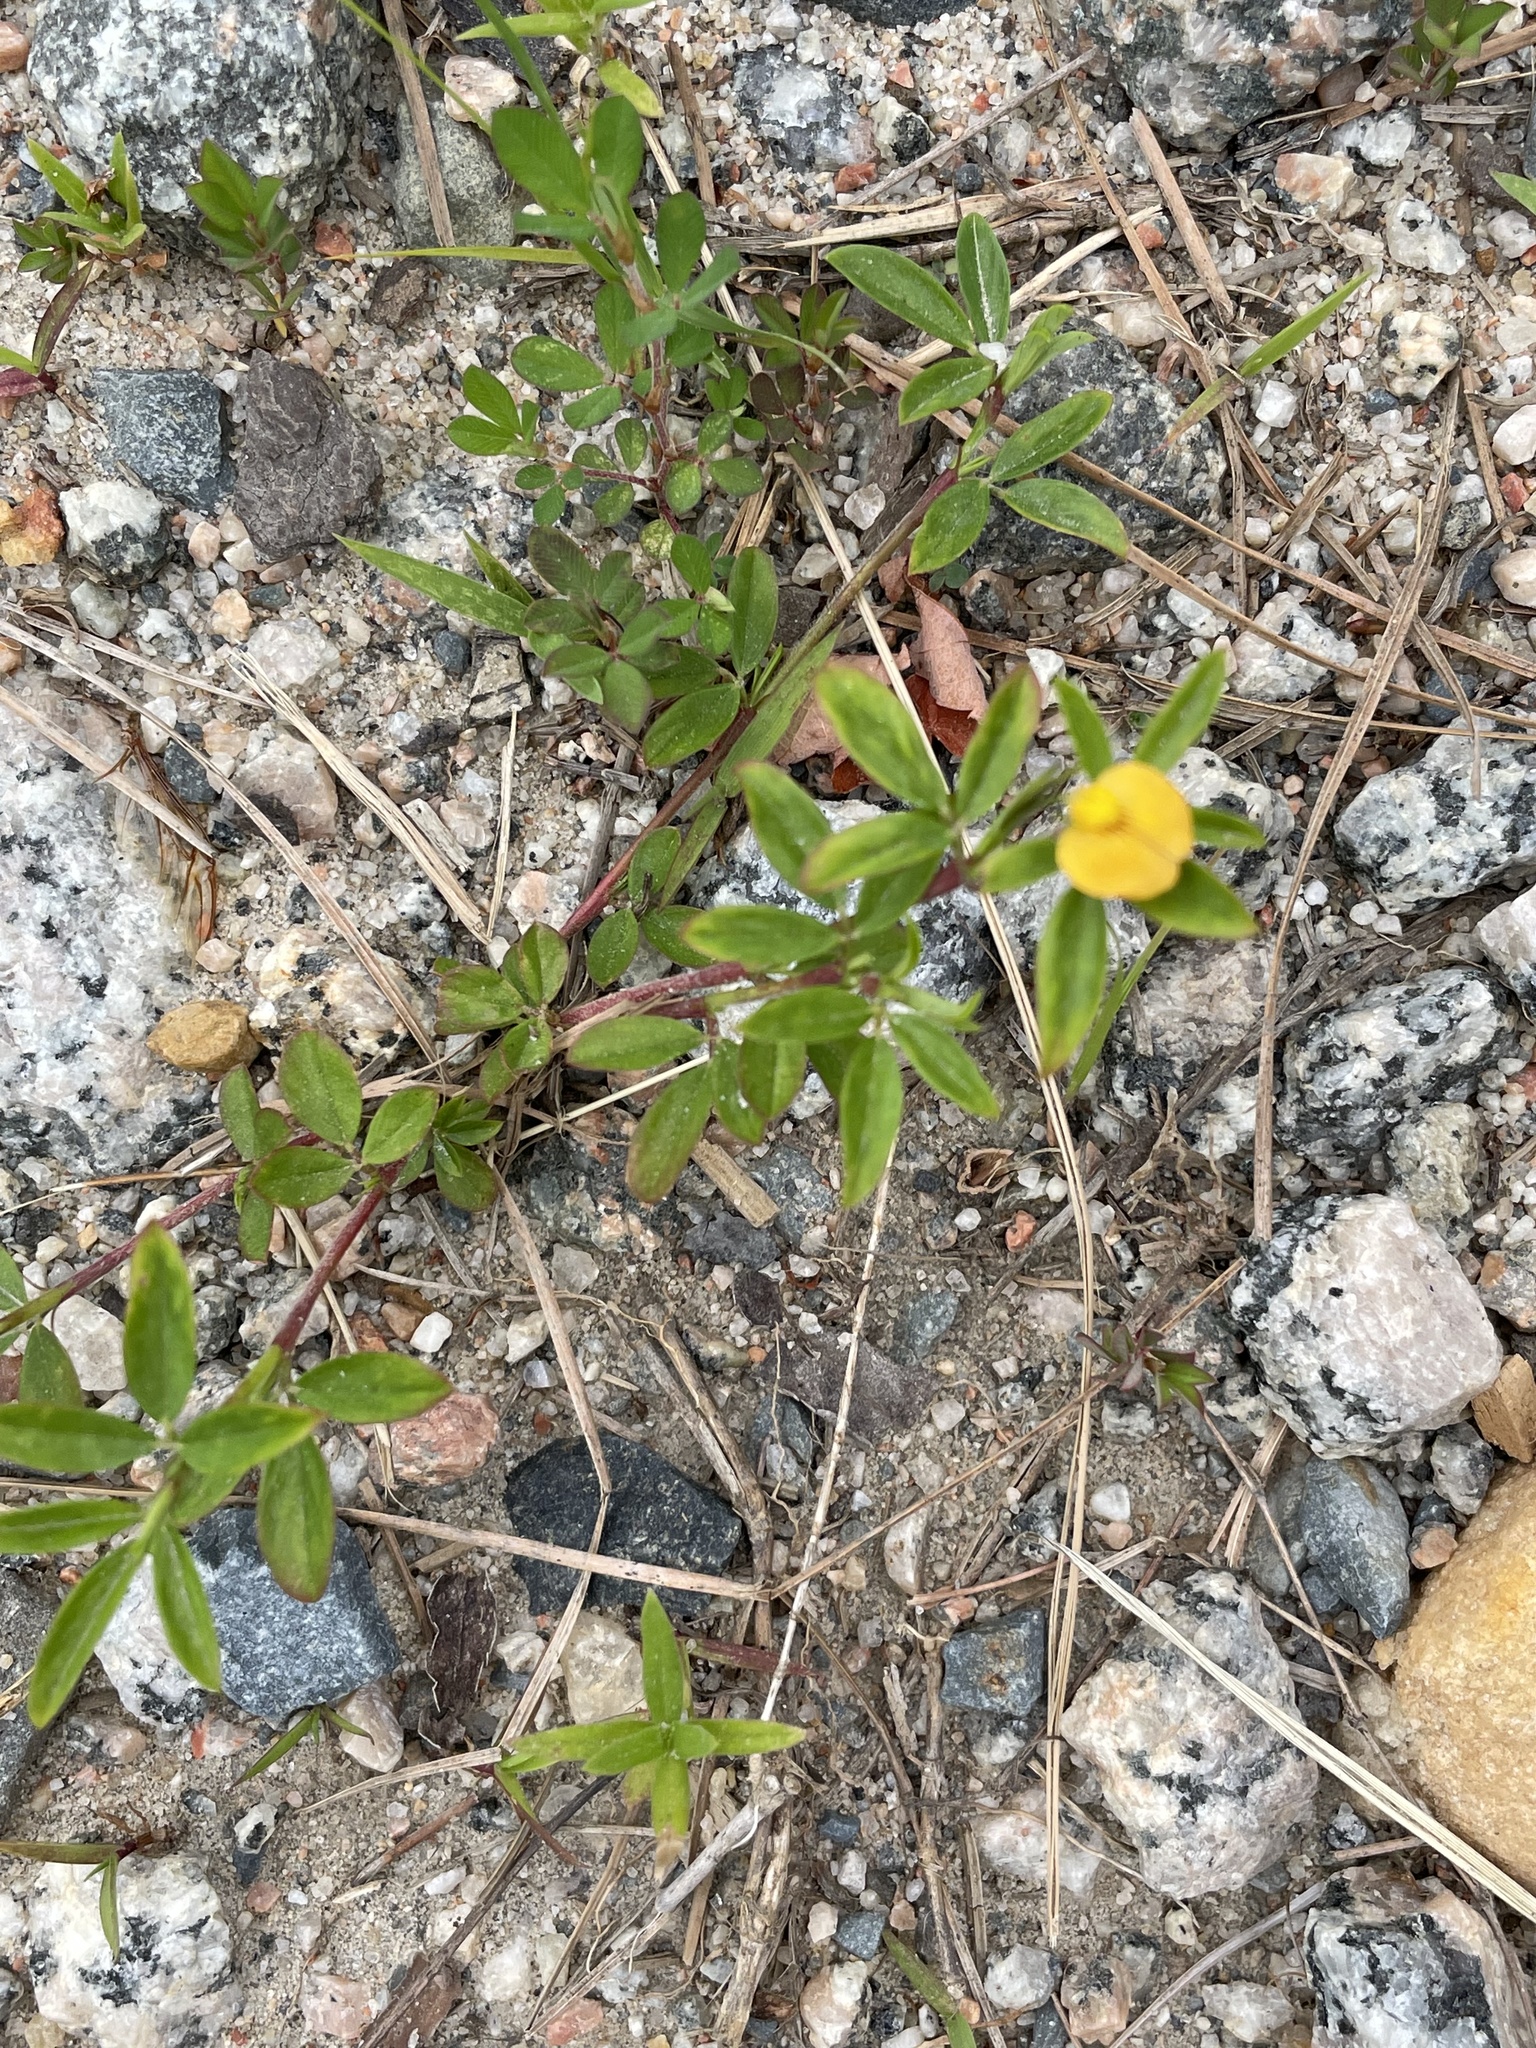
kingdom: Plantae
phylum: Tracheophyta
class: Magnoliopsida
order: Fabales
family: Fabaceae
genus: Stylosanthes
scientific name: Stylosanthes biflora
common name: Two-flower pencil-flower
